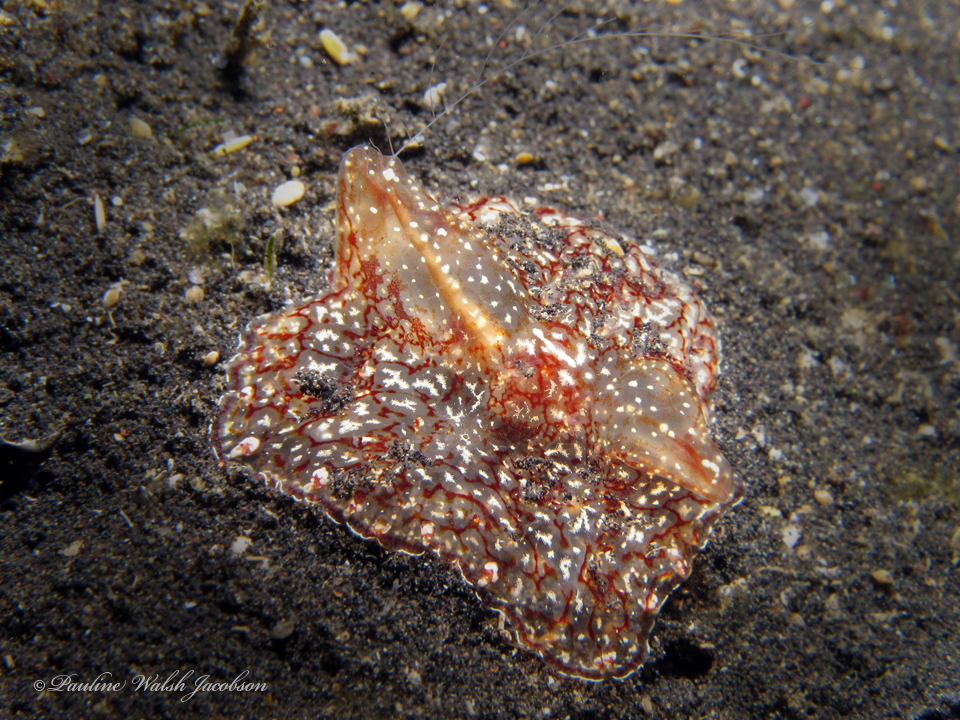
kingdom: Animalia
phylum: Ctenophora
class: Tentaculata
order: Platyctenida
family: Coeloplanidae
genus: Coeloplana
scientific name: Coeloplana meteoris
